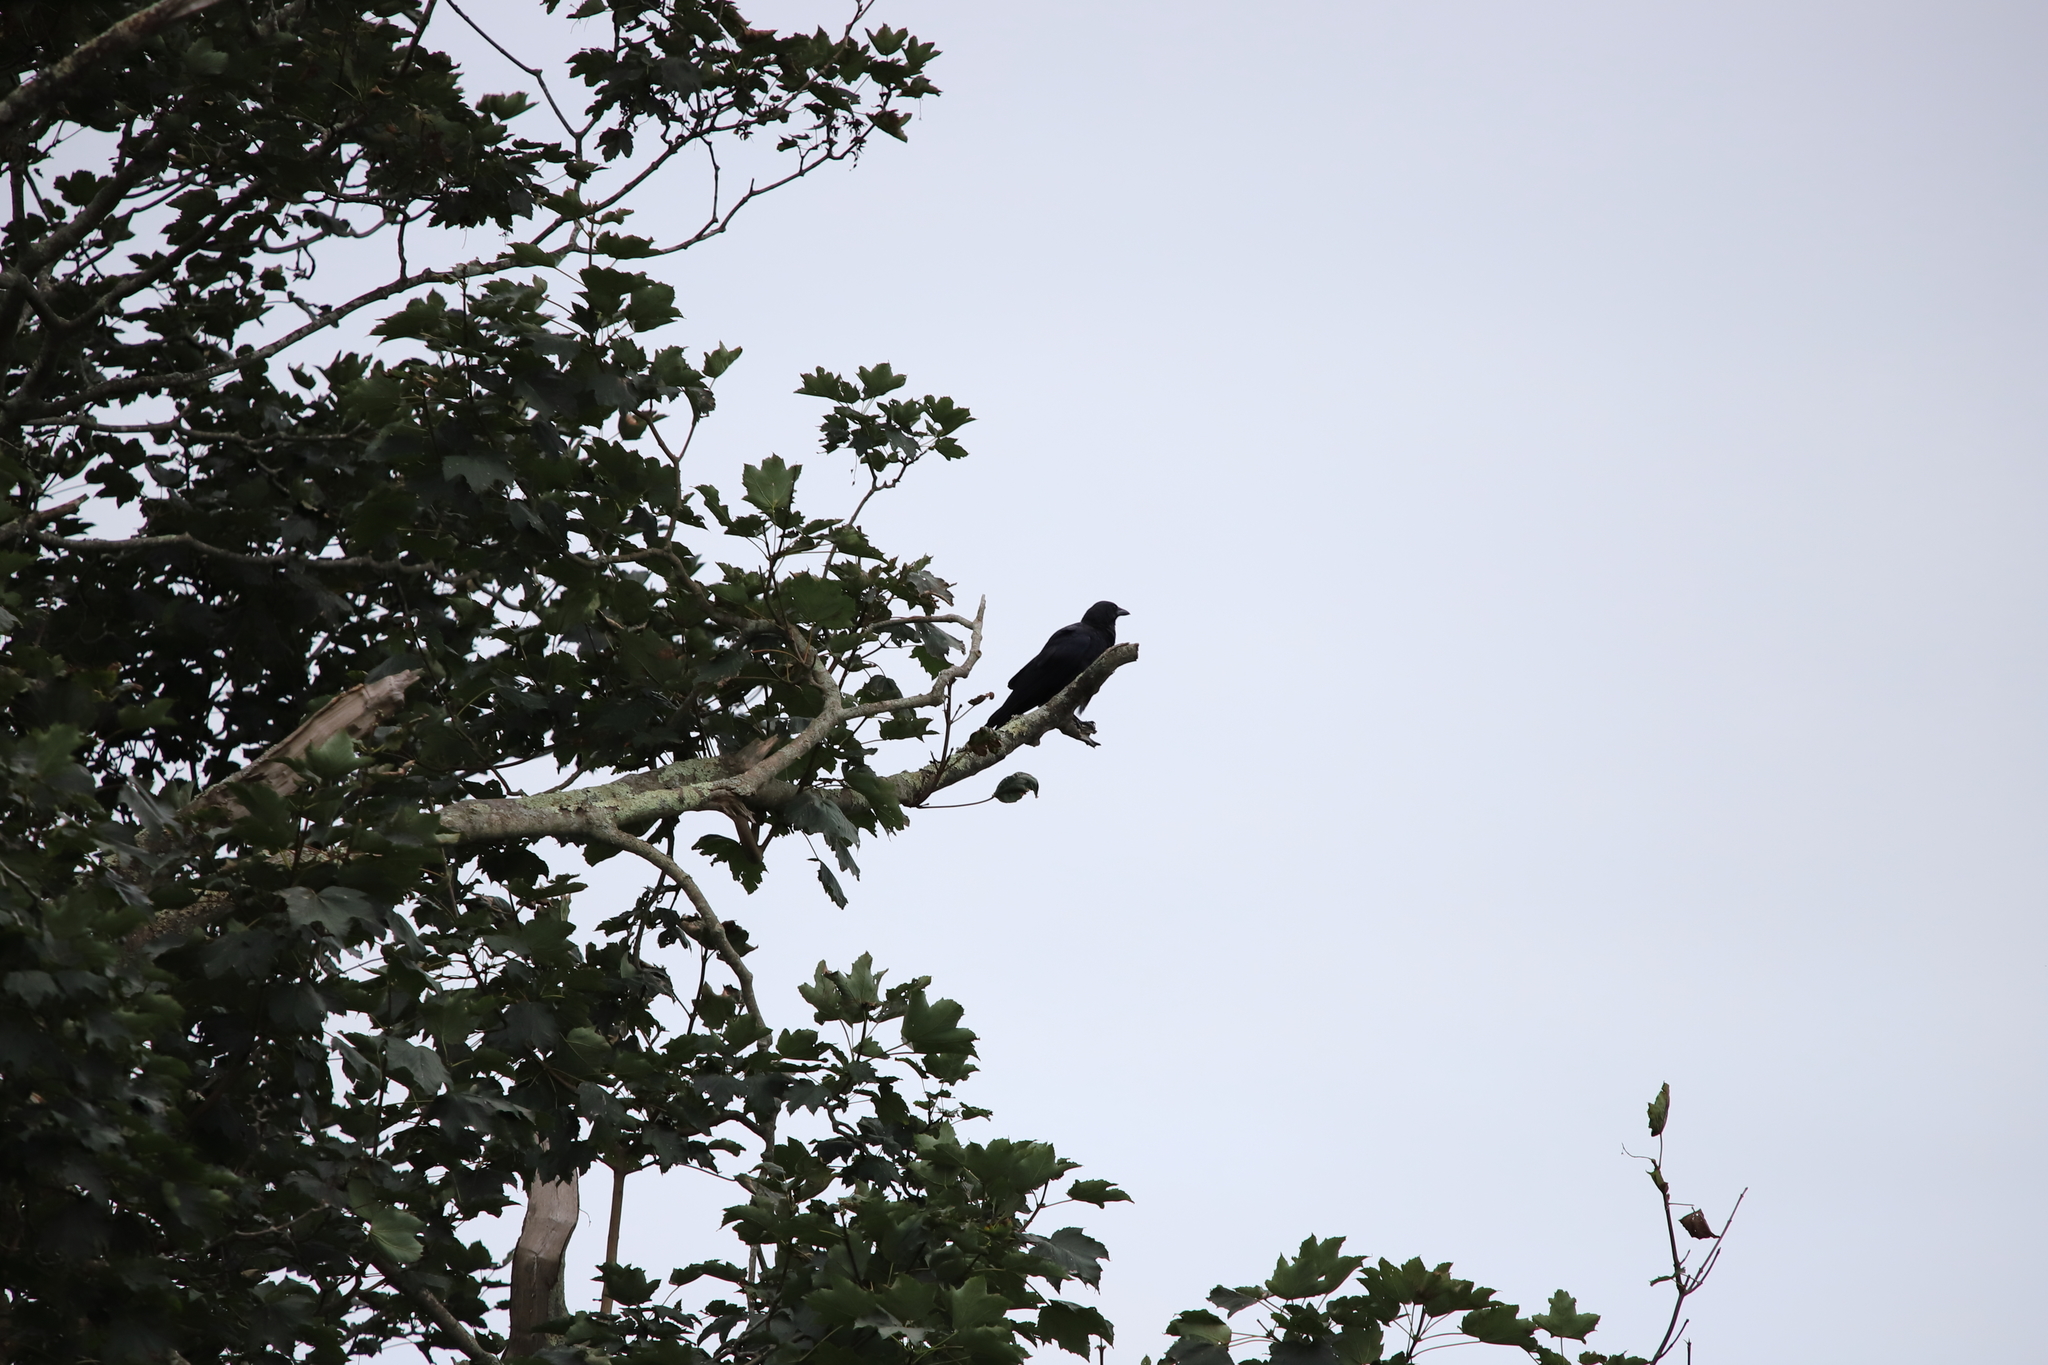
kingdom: Animalia
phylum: Chordata
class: Aves
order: Passeriformes
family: Corvidae
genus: Corvus
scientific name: Corvus brachyrhynchos
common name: American crow
